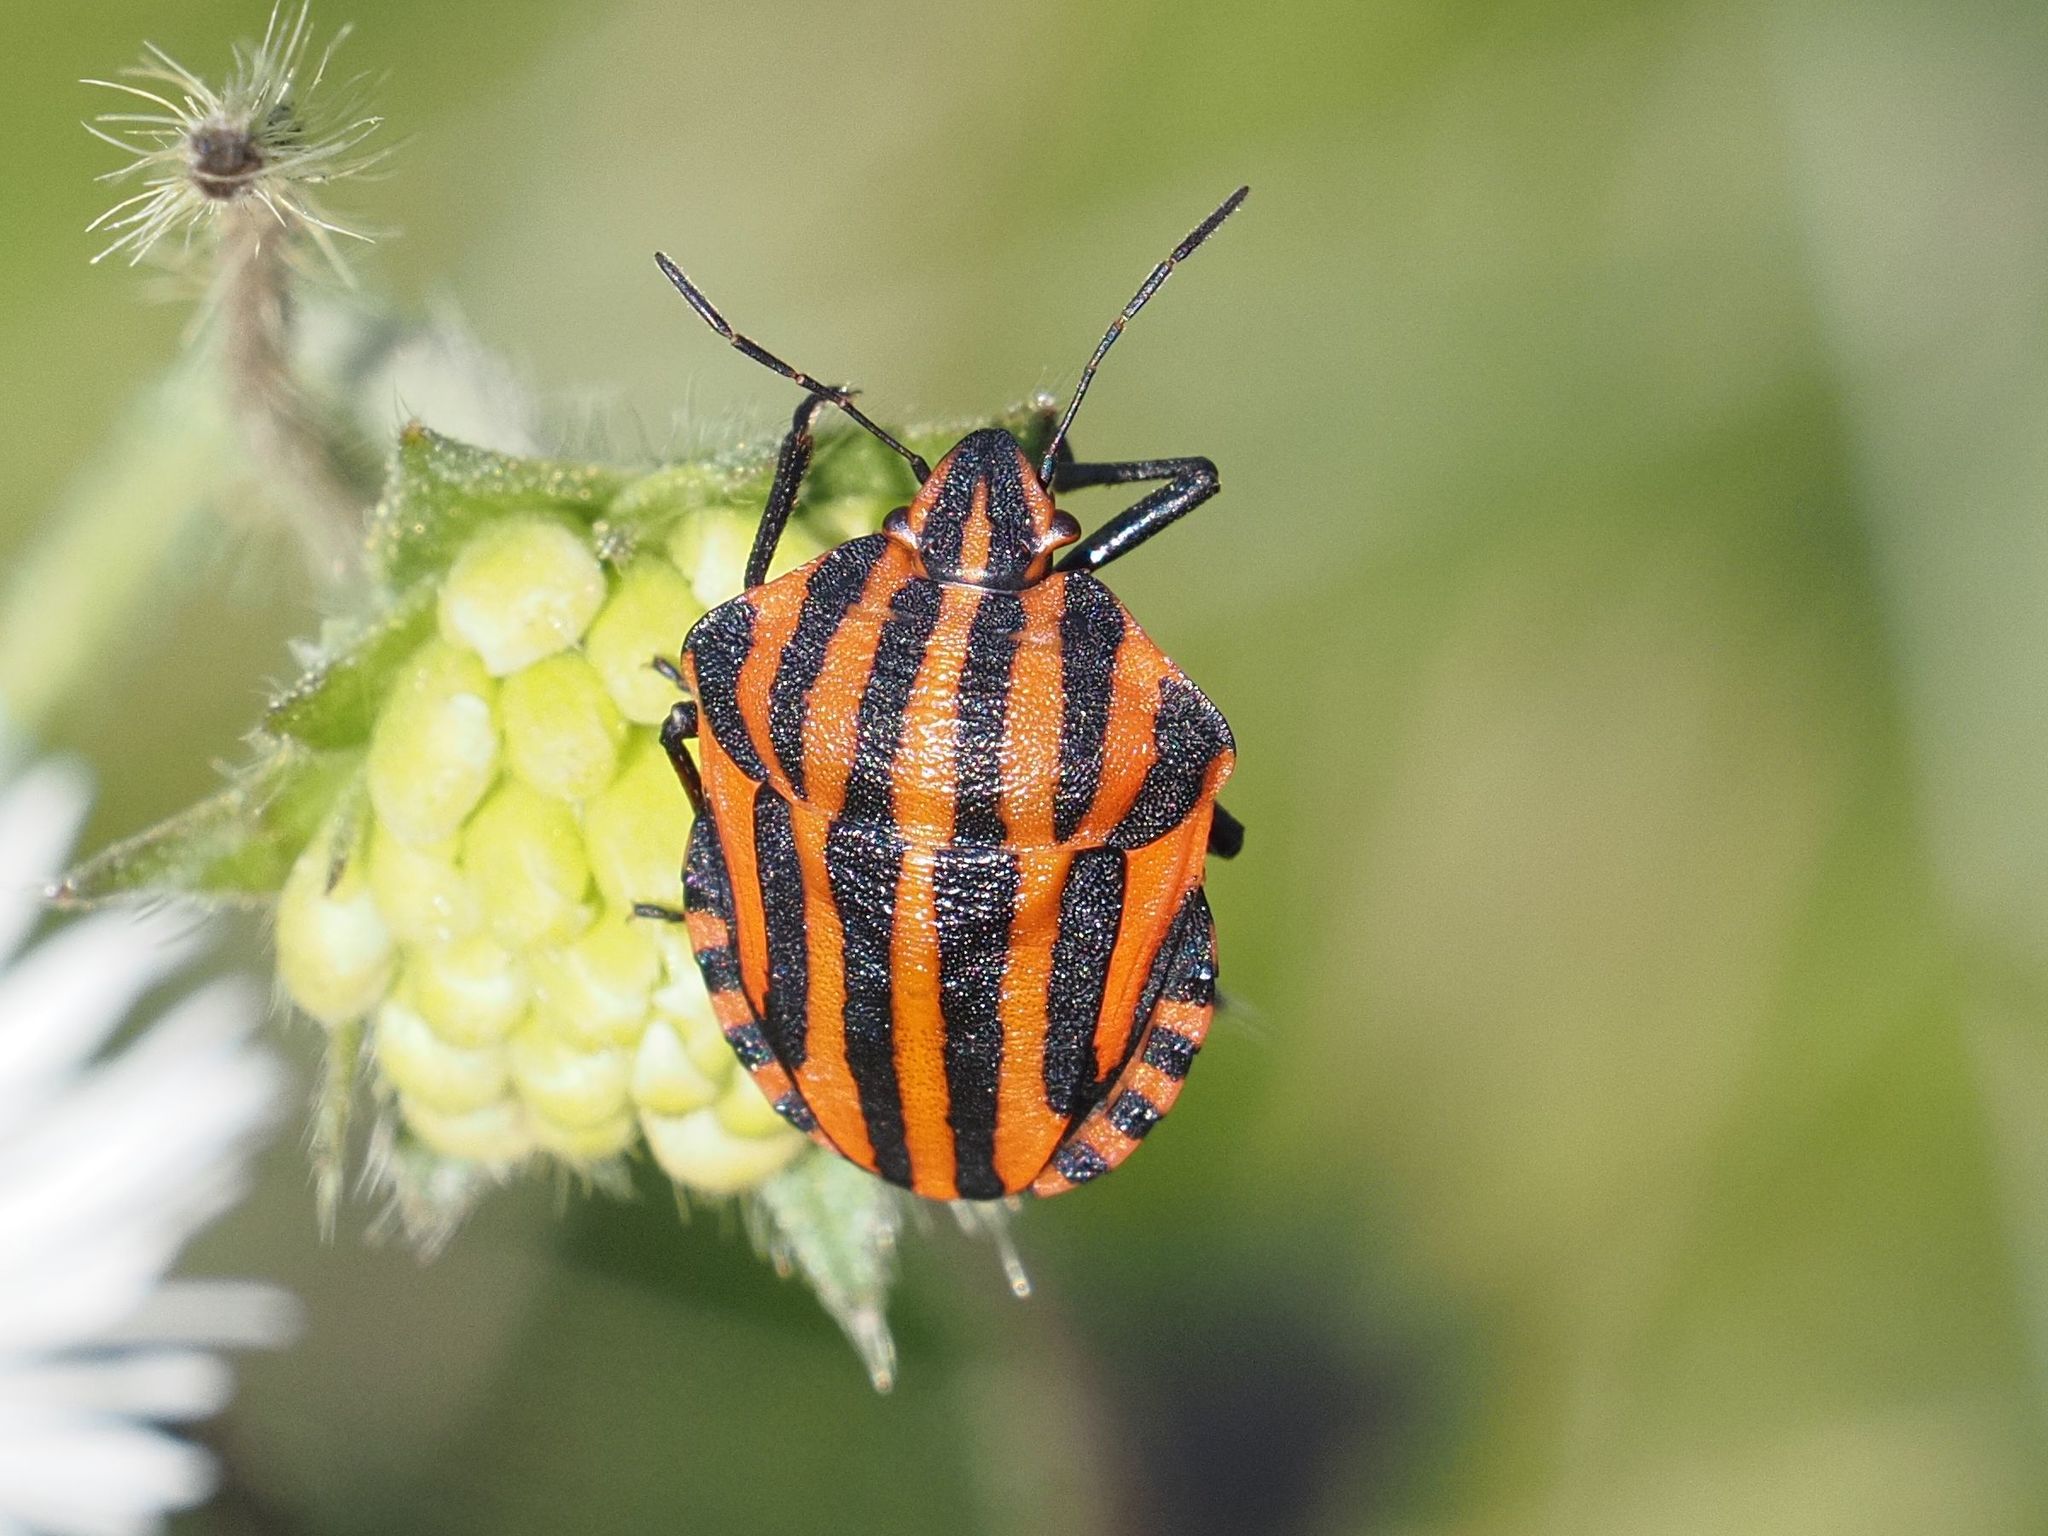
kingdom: Animalia
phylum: Arthropoda
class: Insecta
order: Hemiptera
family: Pentatomidae
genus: Graphosoma
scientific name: Graphosoma italicum
